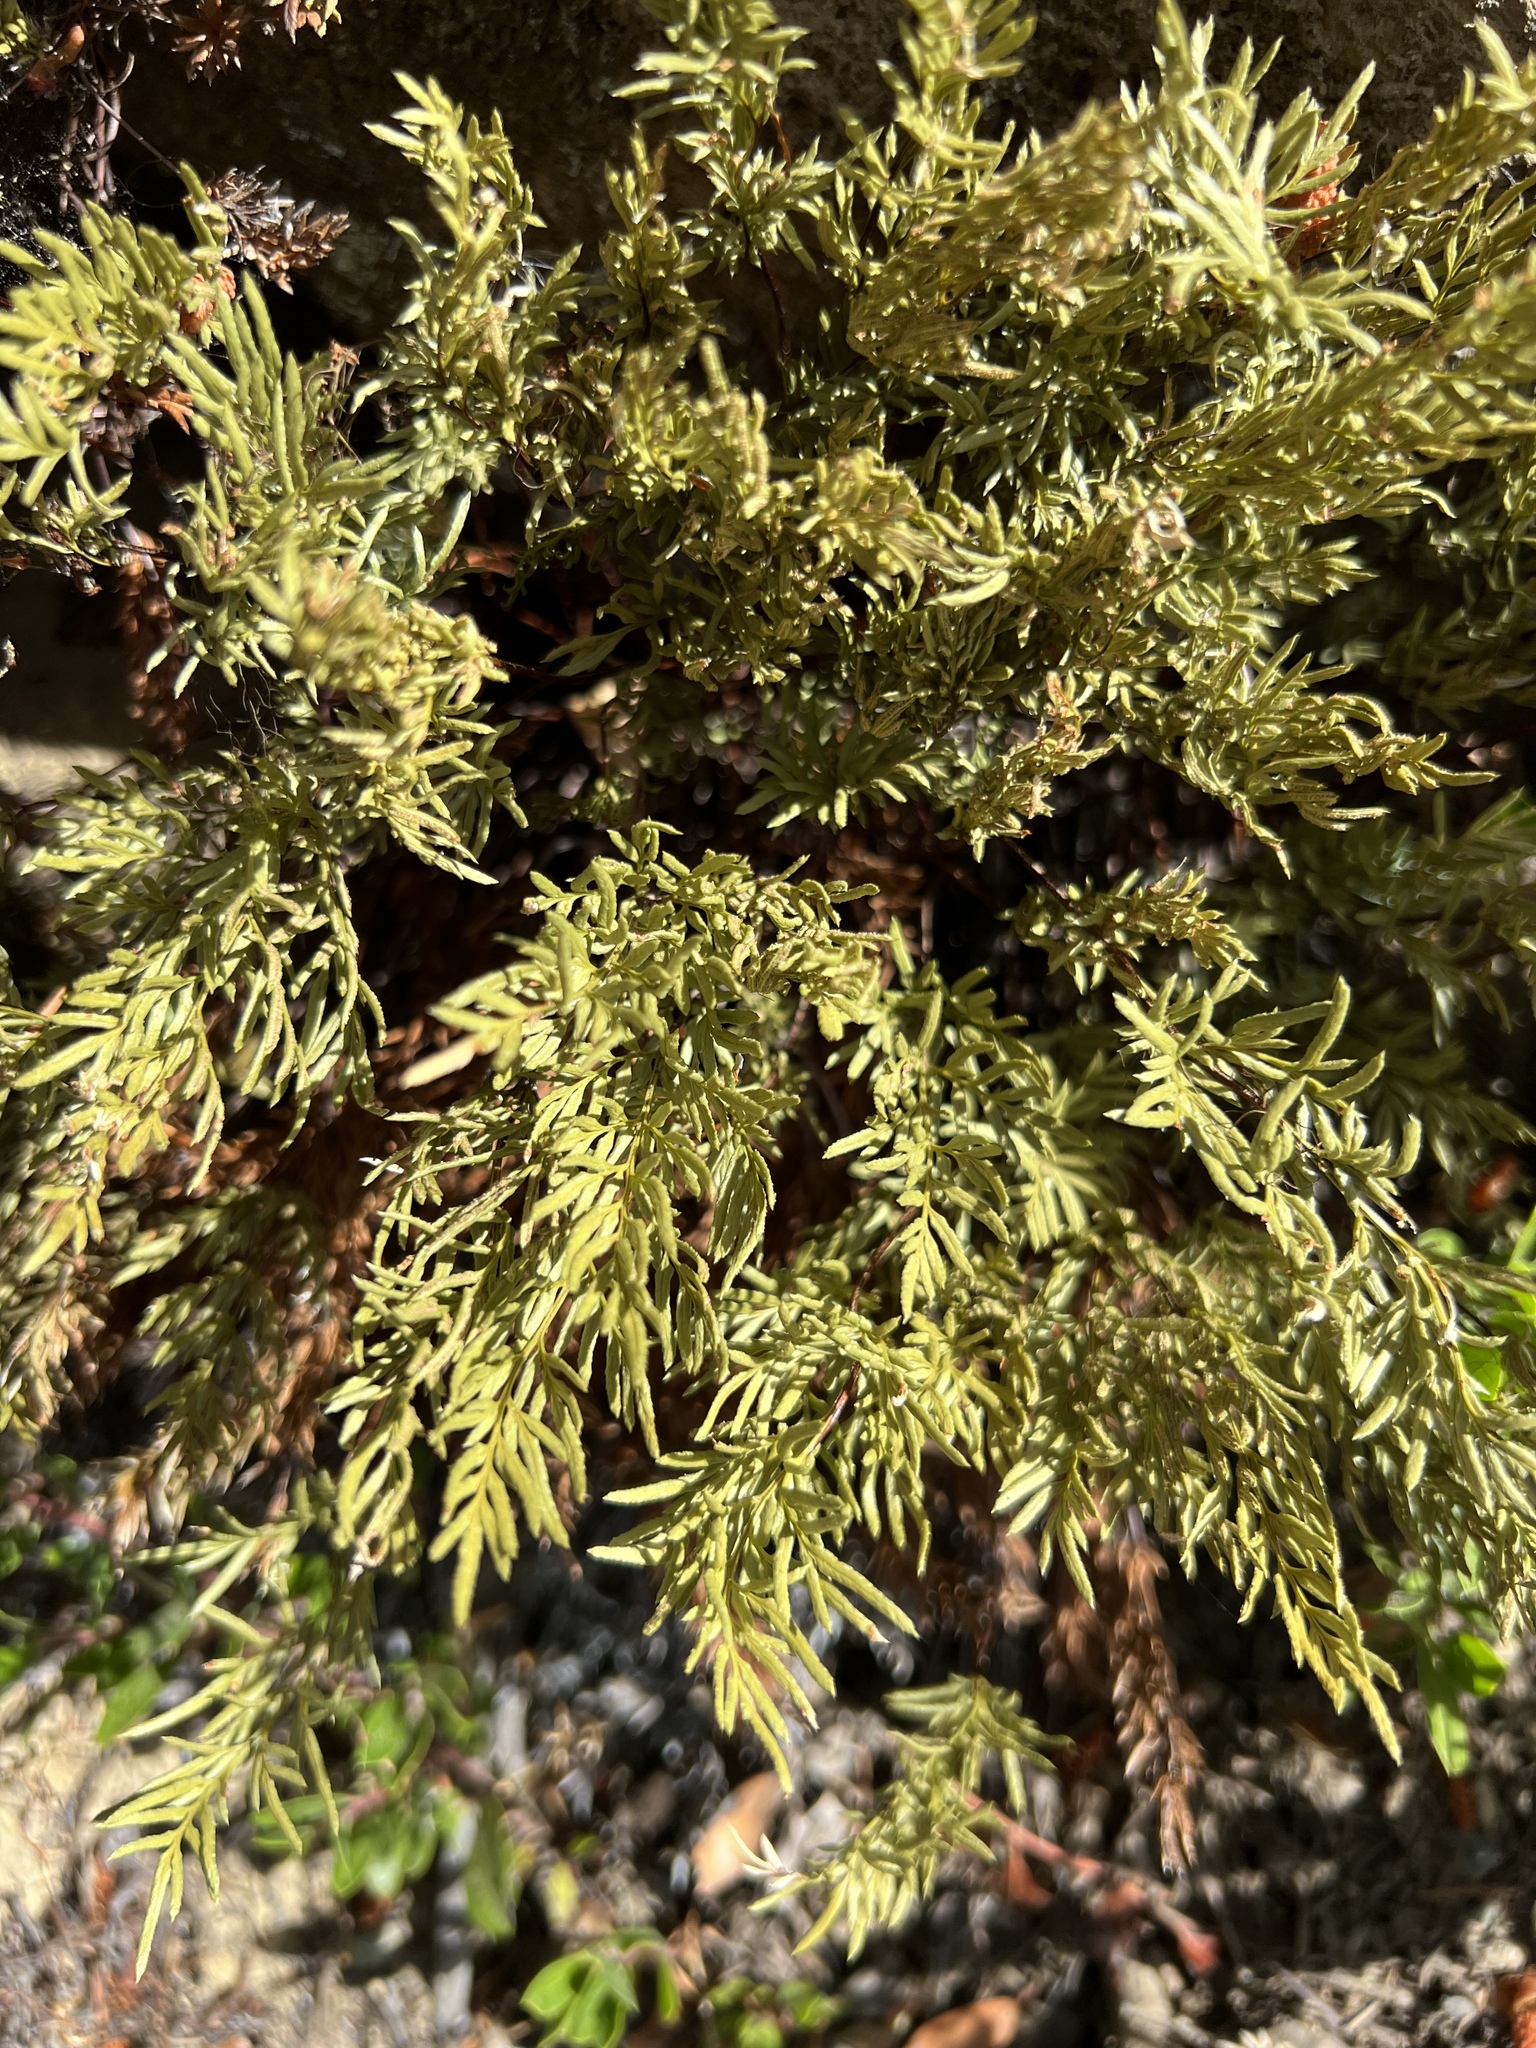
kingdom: Plantae
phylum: Tracheophyta
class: Polypodiopsida
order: Polypodiales
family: Pteridaceae
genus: Aspidotis
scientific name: Aspidotis densa
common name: Indian's dream
